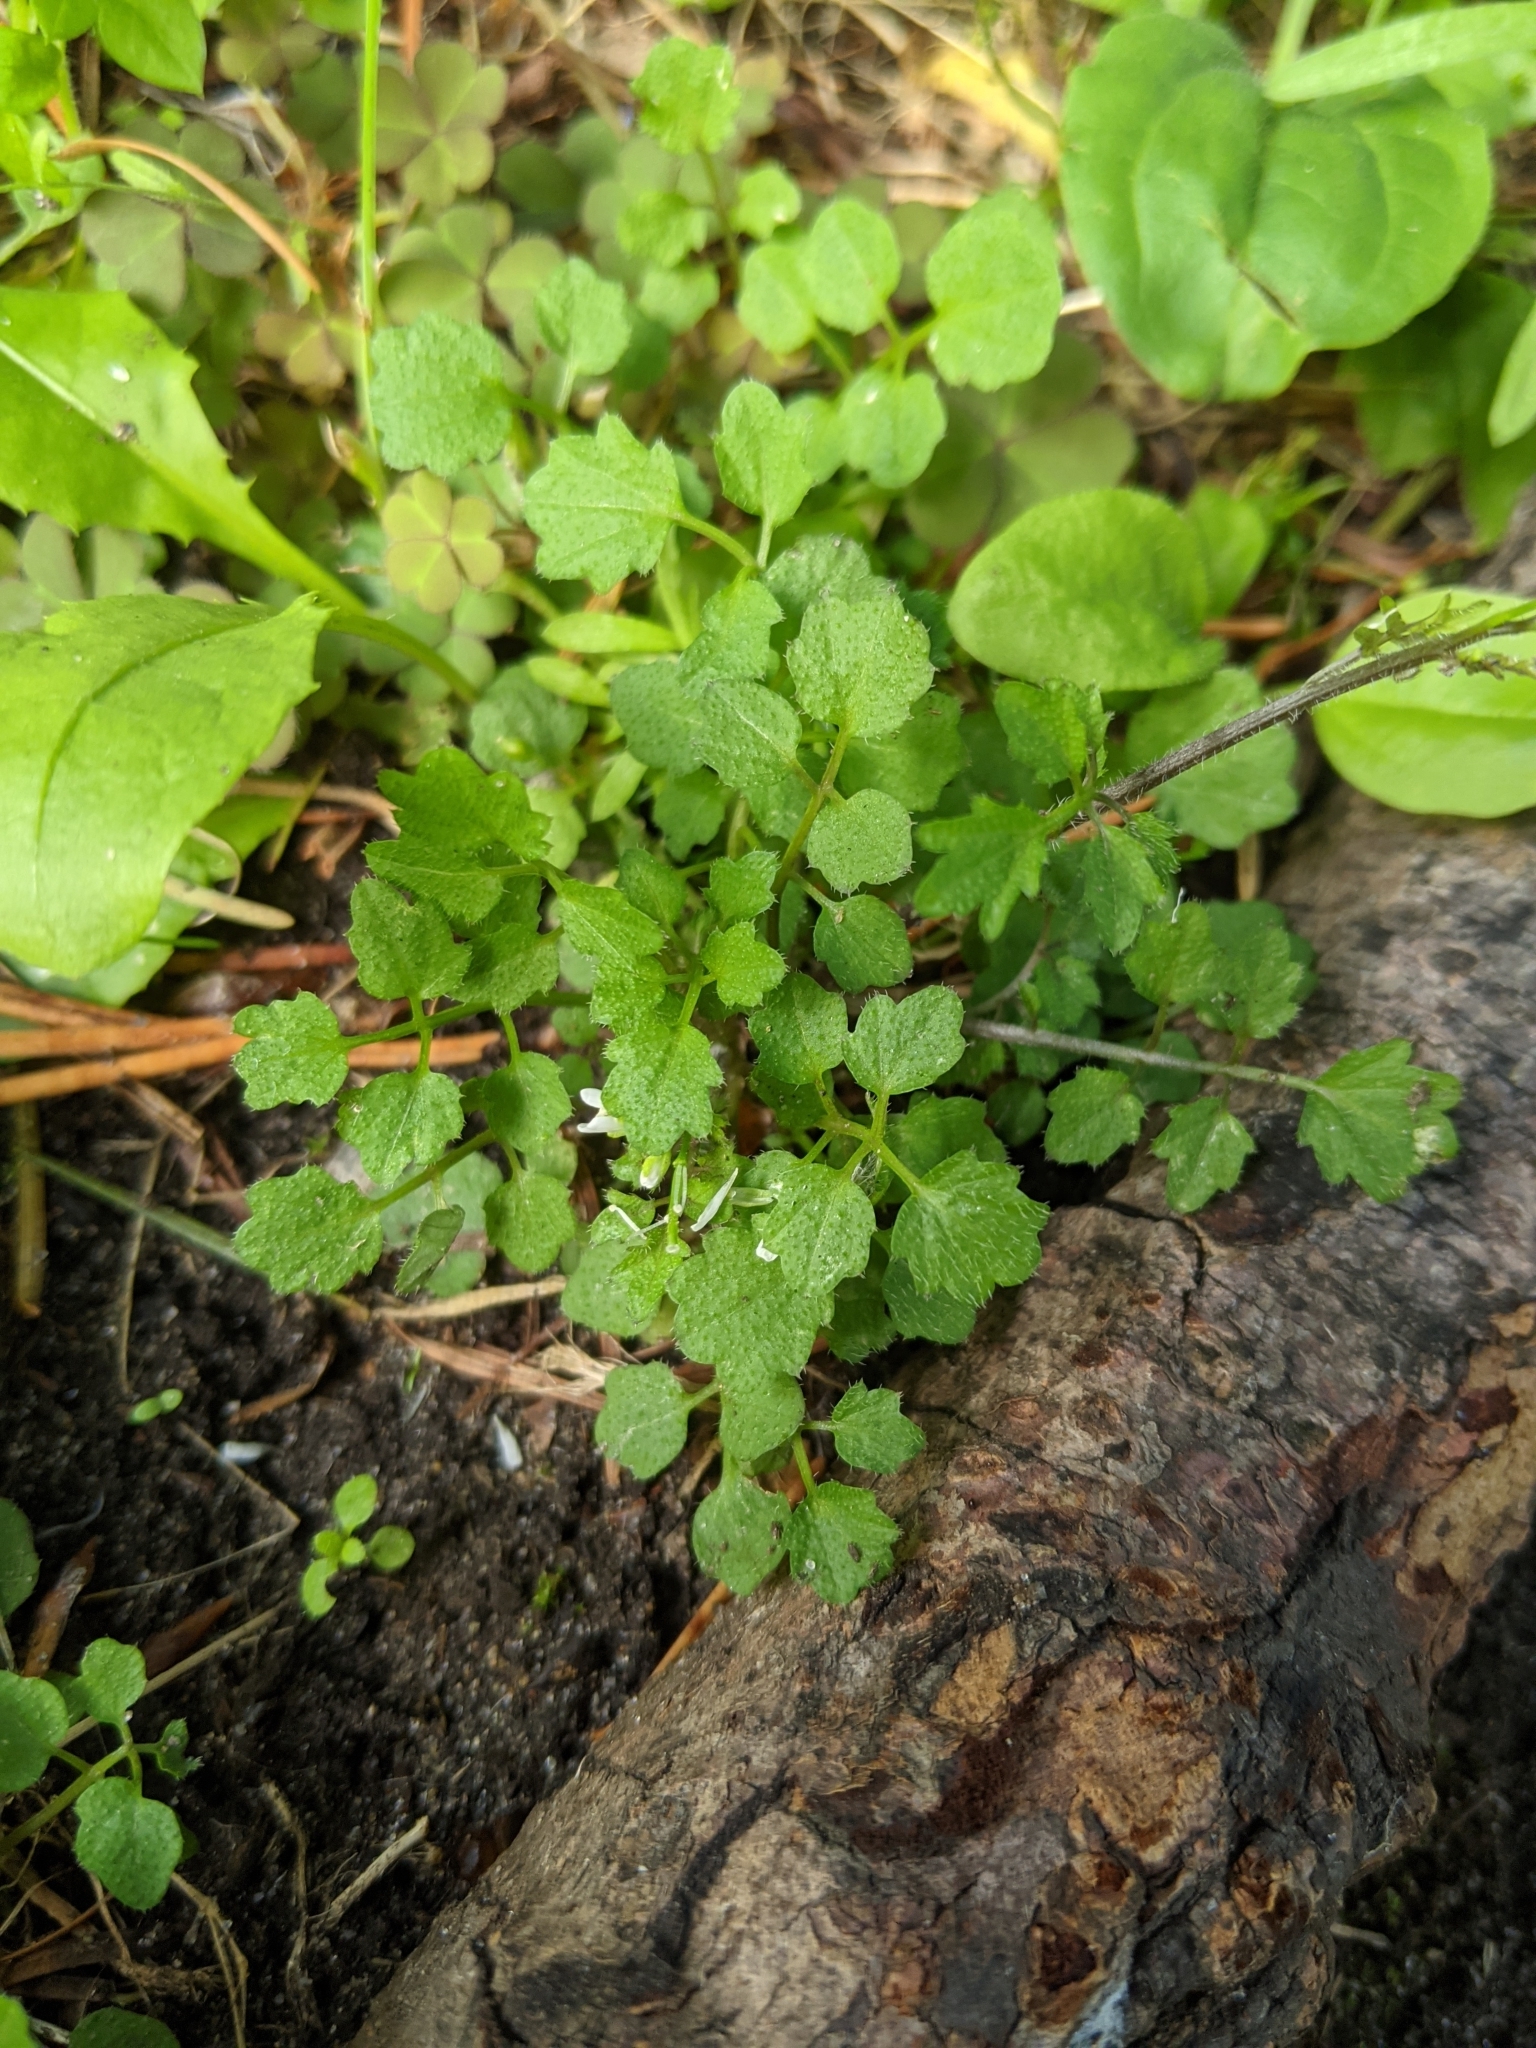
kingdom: Plantae
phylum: Tracheophyta
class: Magnoliopsida
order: Brassicales
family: Brassicaceae
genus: Cardamine
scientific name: Cardamine flexuosa
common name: Woodland bittercress
